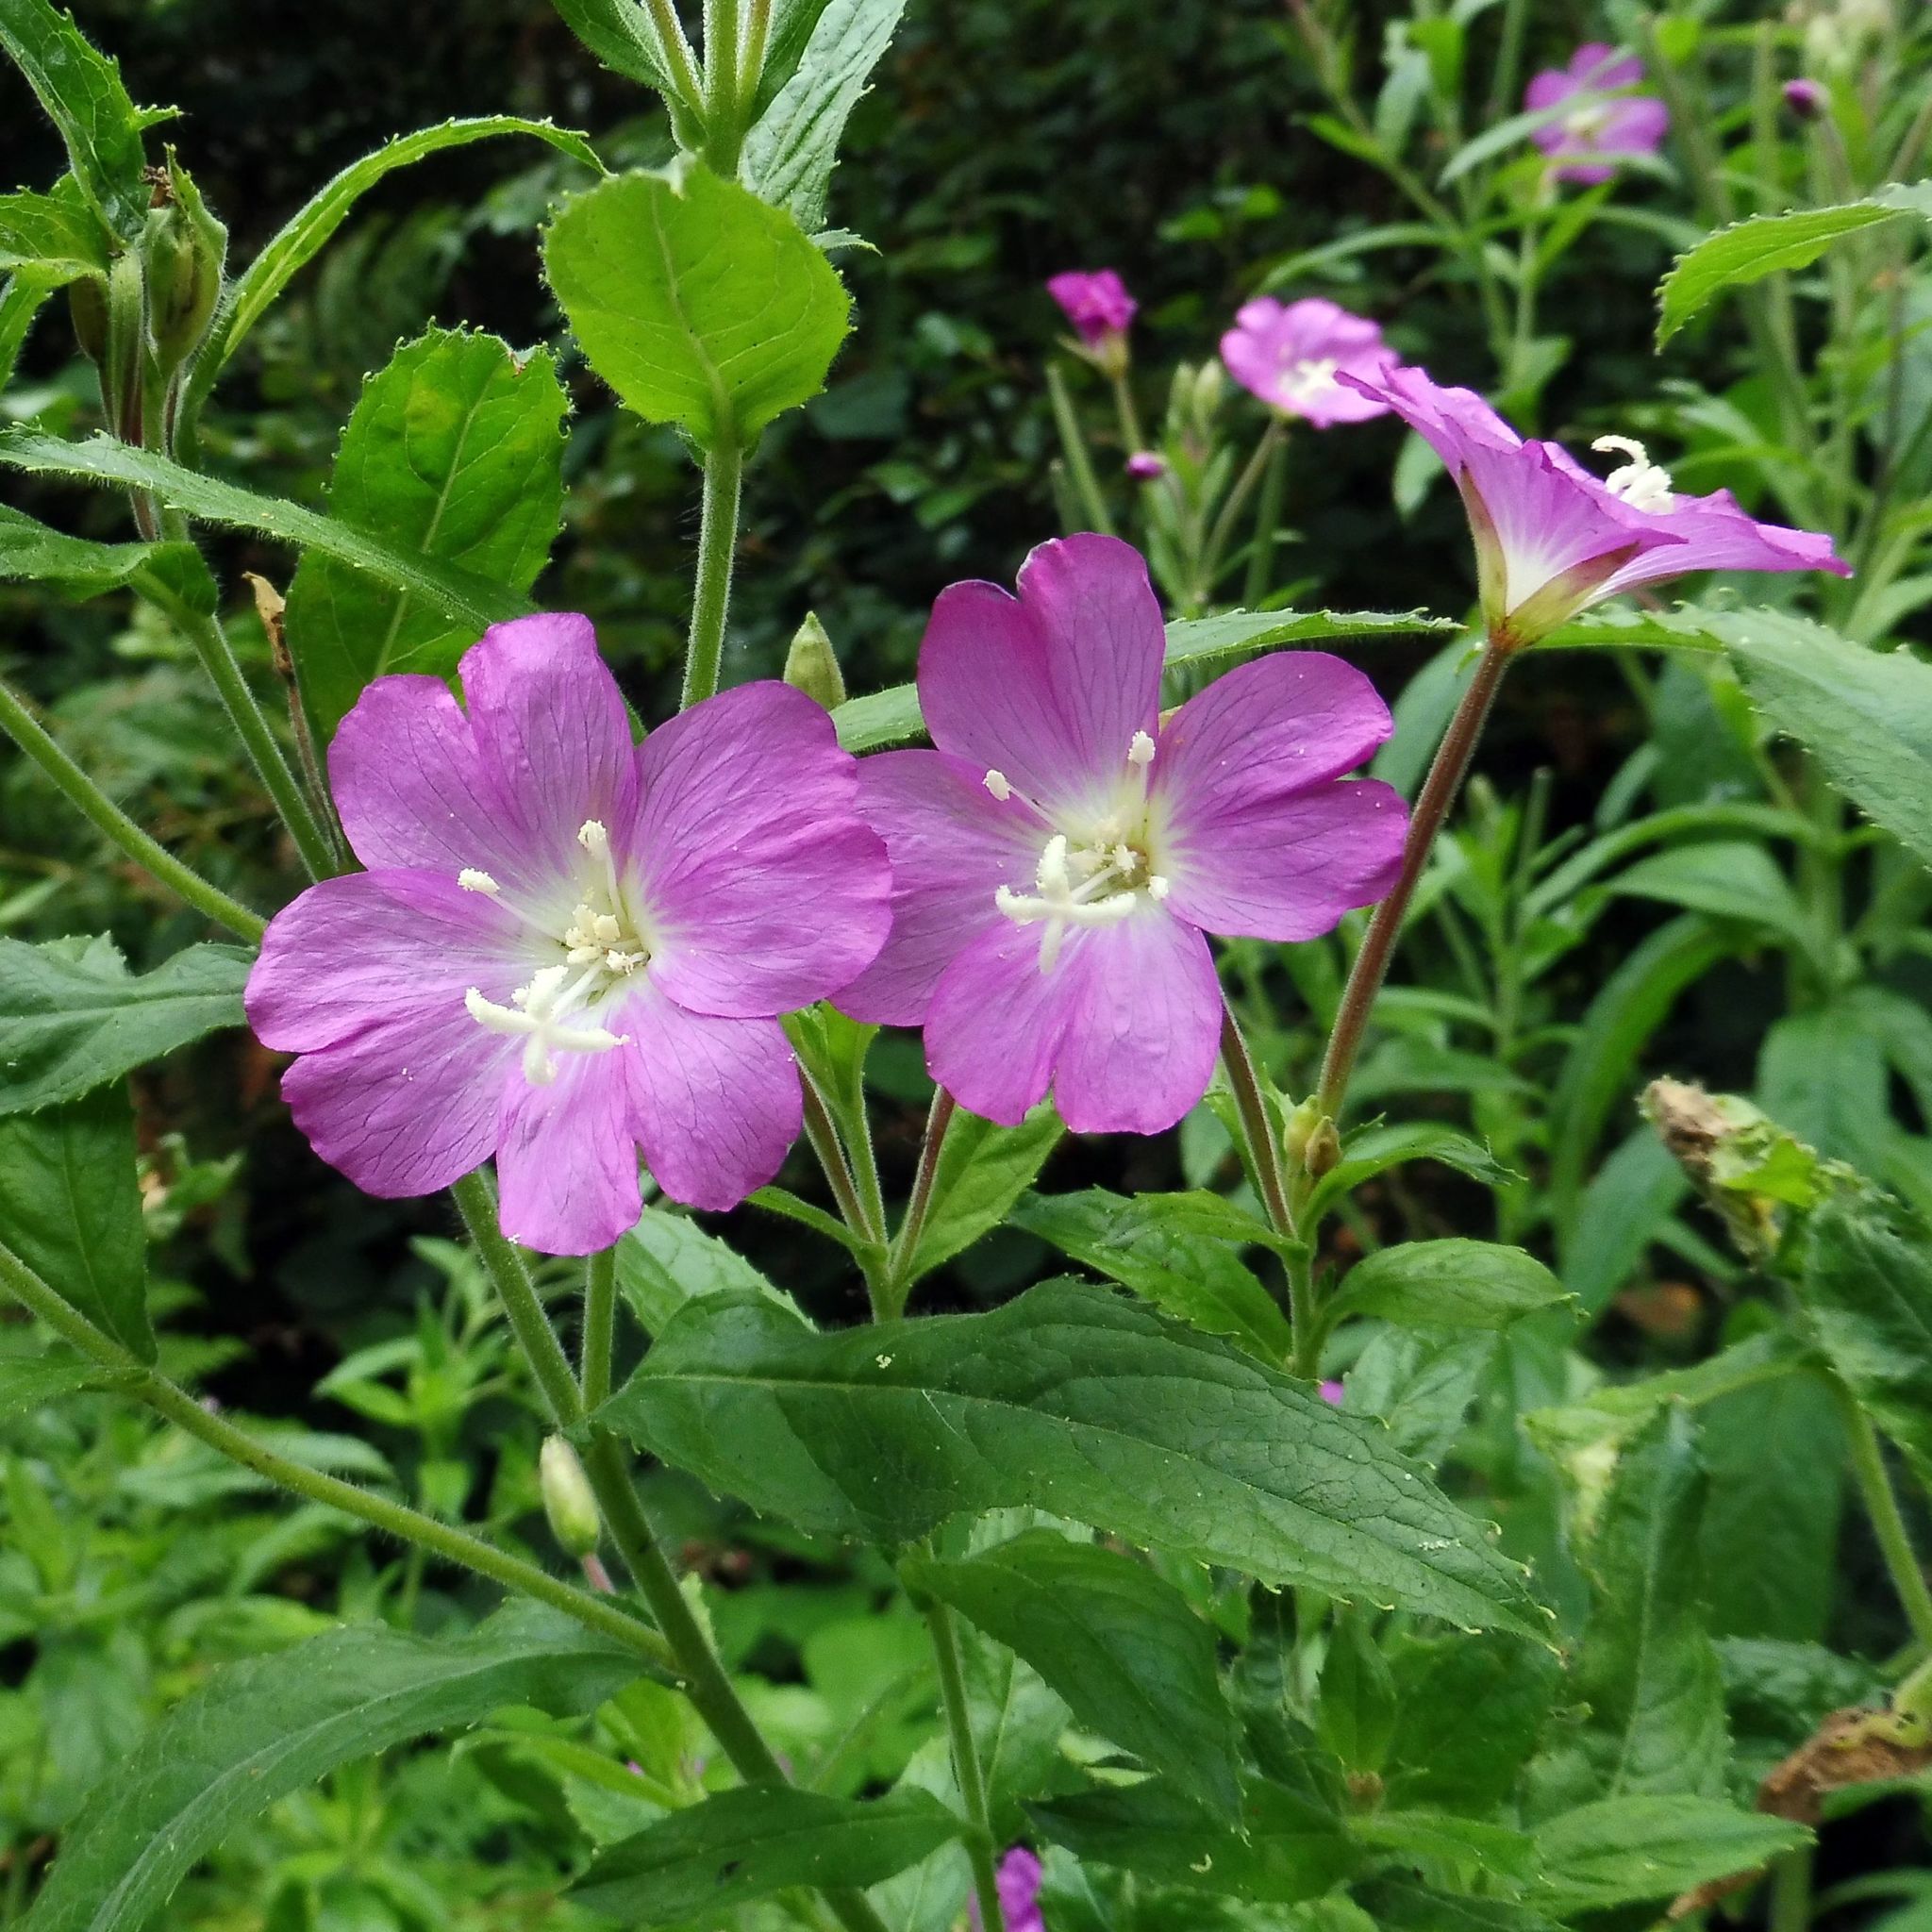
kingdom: Plantae
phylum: Tracheophyta
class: Magnoliopsida
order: Myrtales
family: Onagraceae
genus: Epilobium
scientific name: Epilobium hirsutum
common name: Great willowherb
